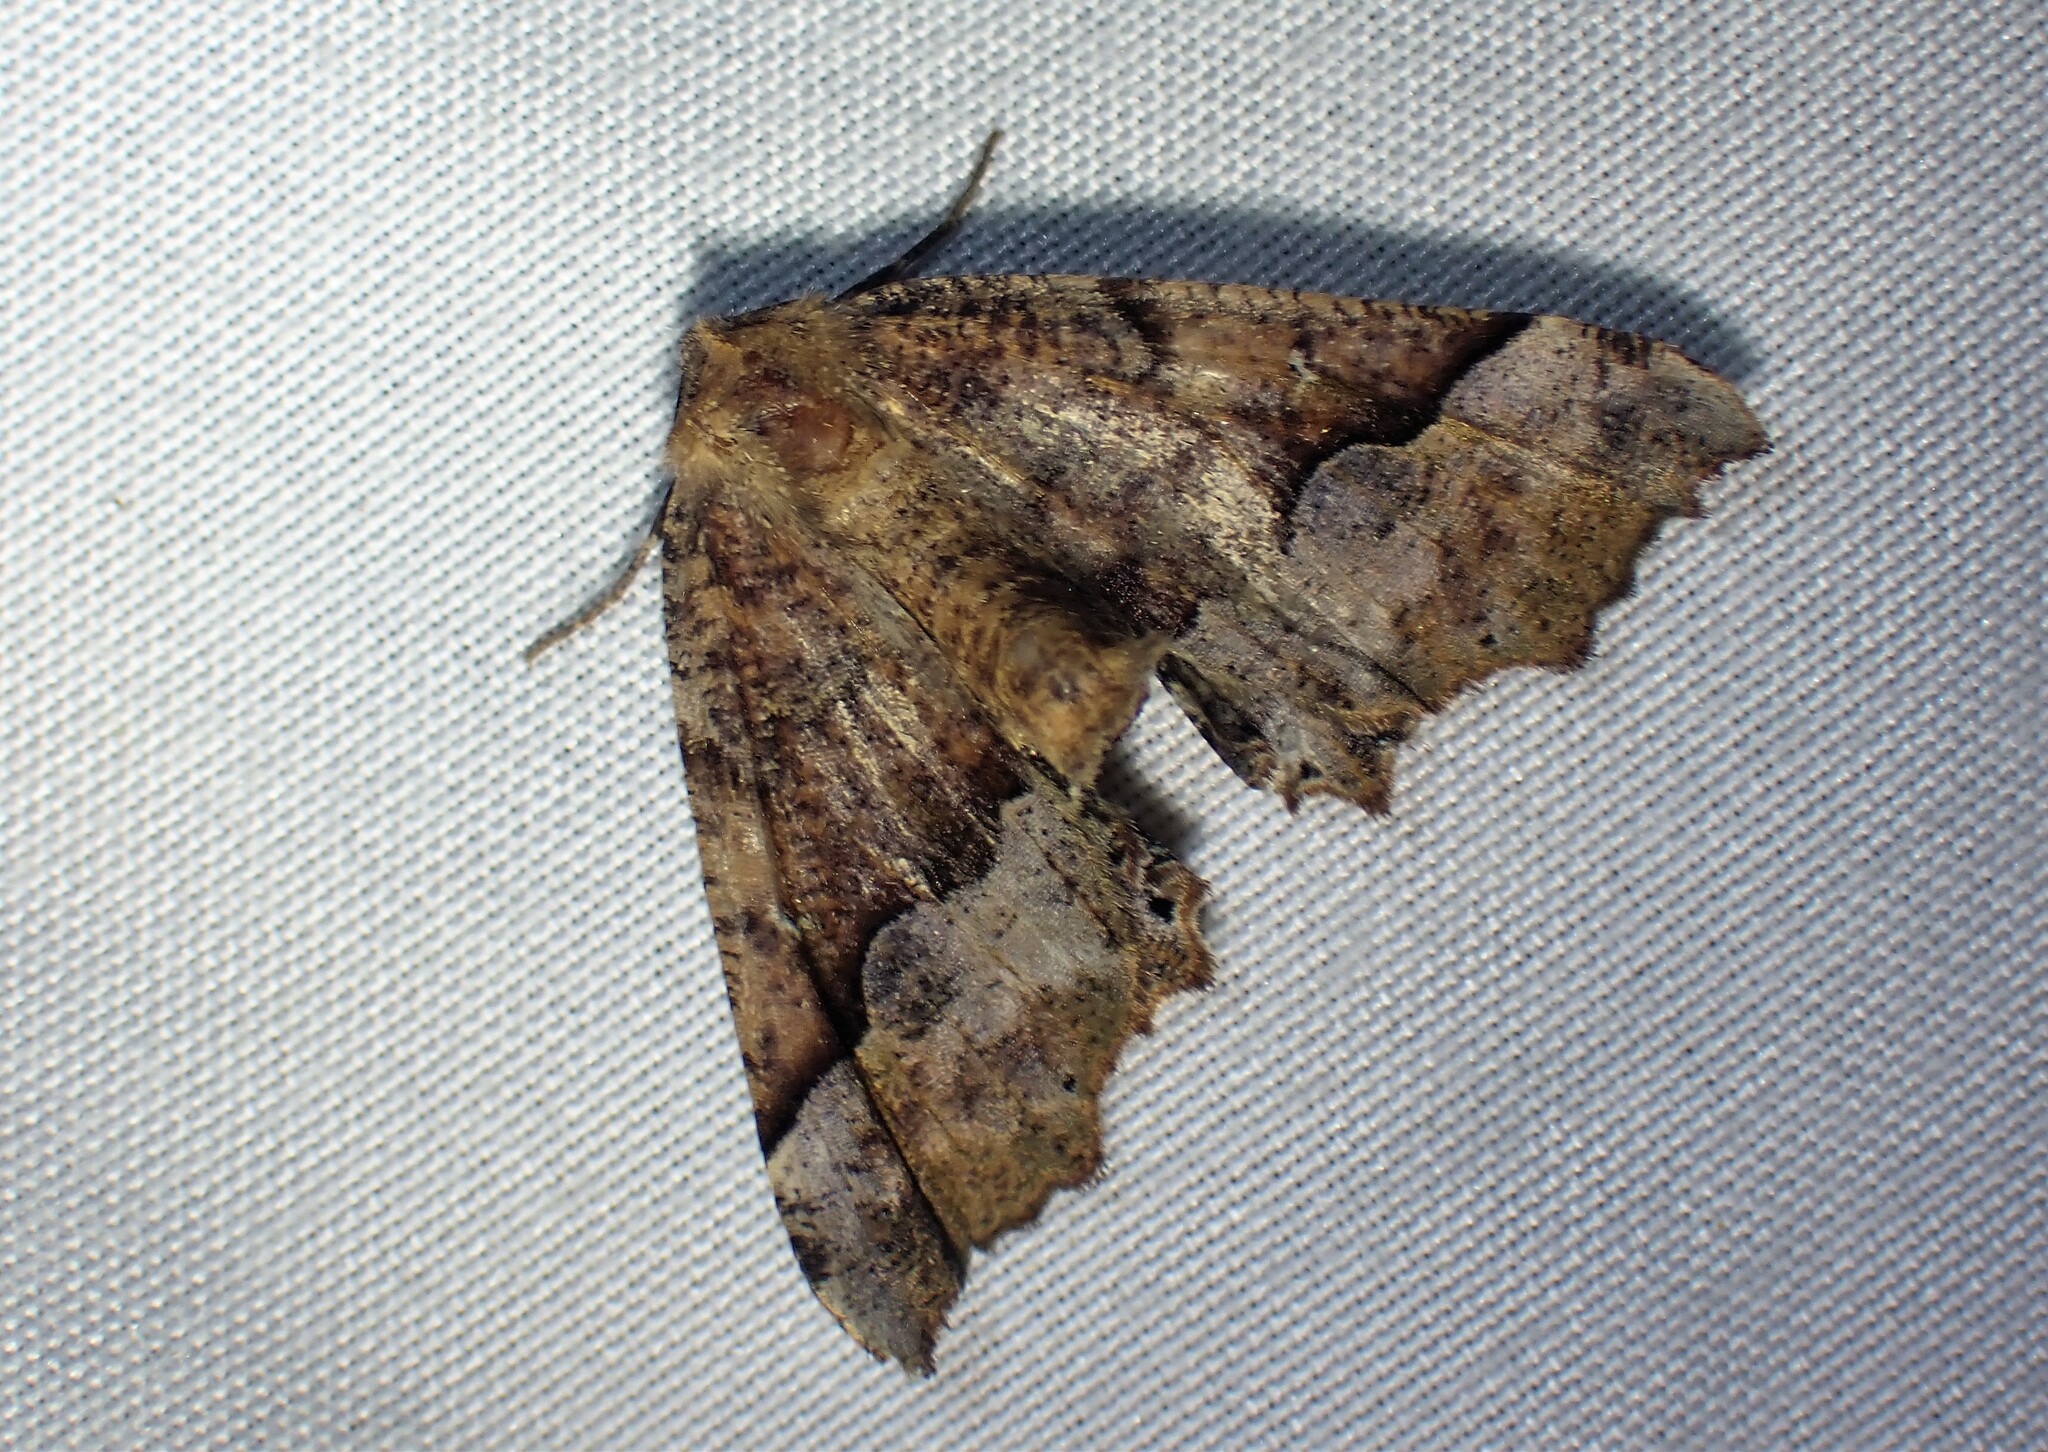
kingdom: Animalia
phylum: Arthropoda
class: Insecta
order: Lepidoptera
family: Geometridae
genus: Pero
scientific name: Pero morrisonaria
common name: Morrison's pero
